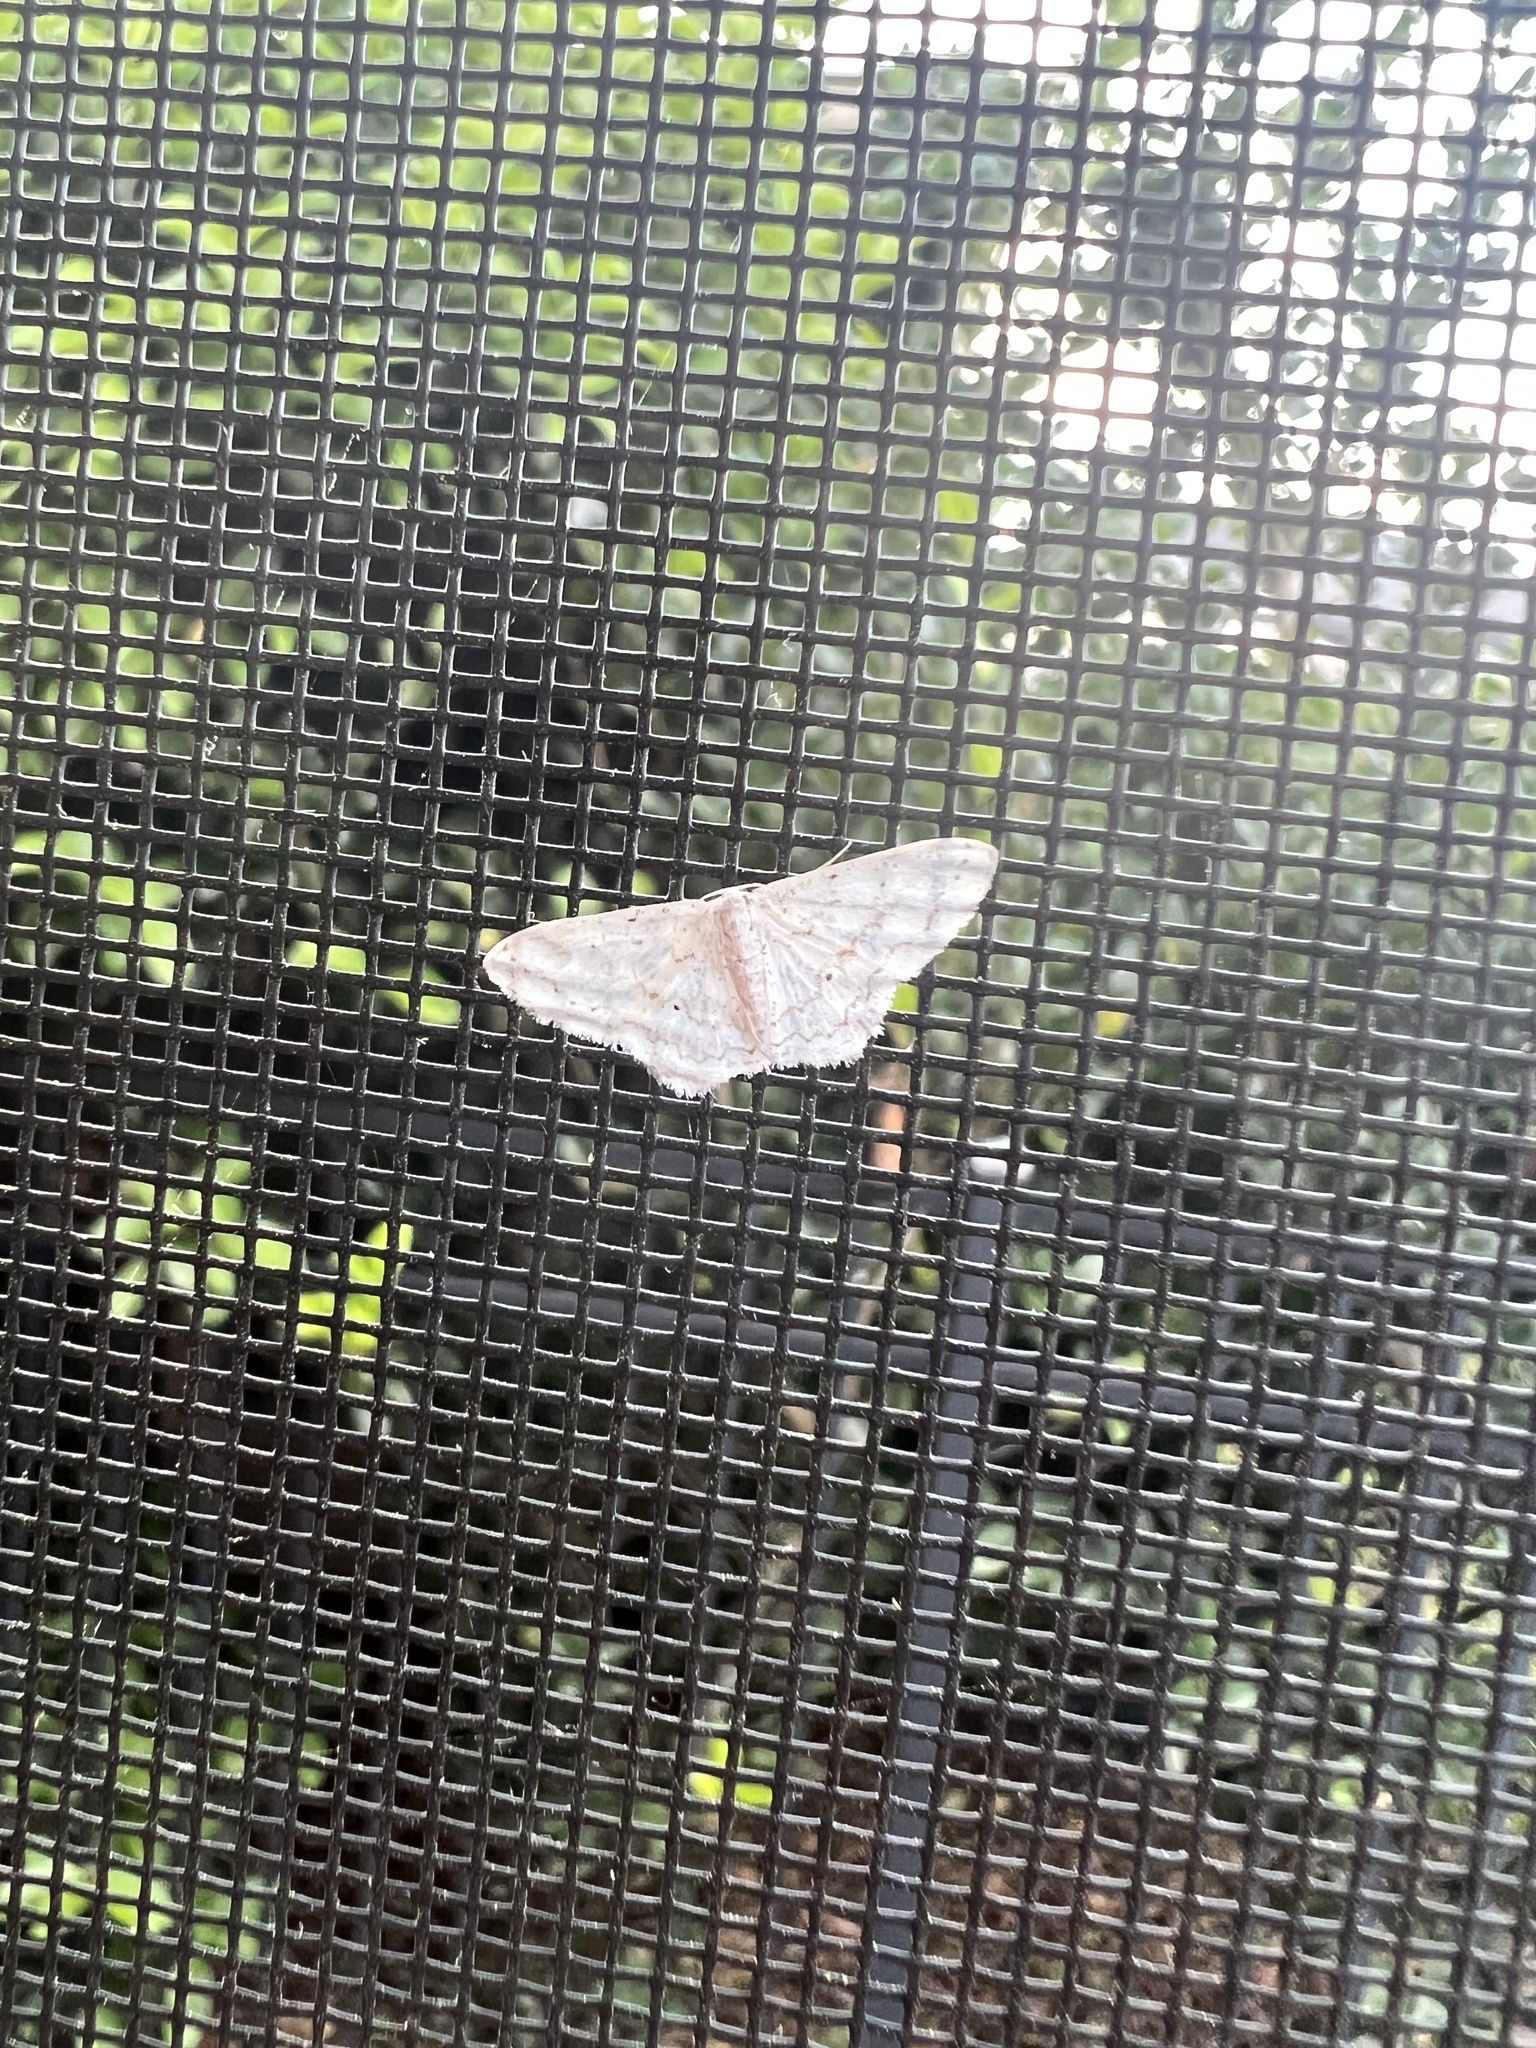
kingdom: Animalia
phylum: Arthropoda
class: Insecta
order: Lepidoptera
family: Geometridae
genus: Pleuroprucha
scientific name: Pleuroprucha insulsaria
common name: Common tan wave
